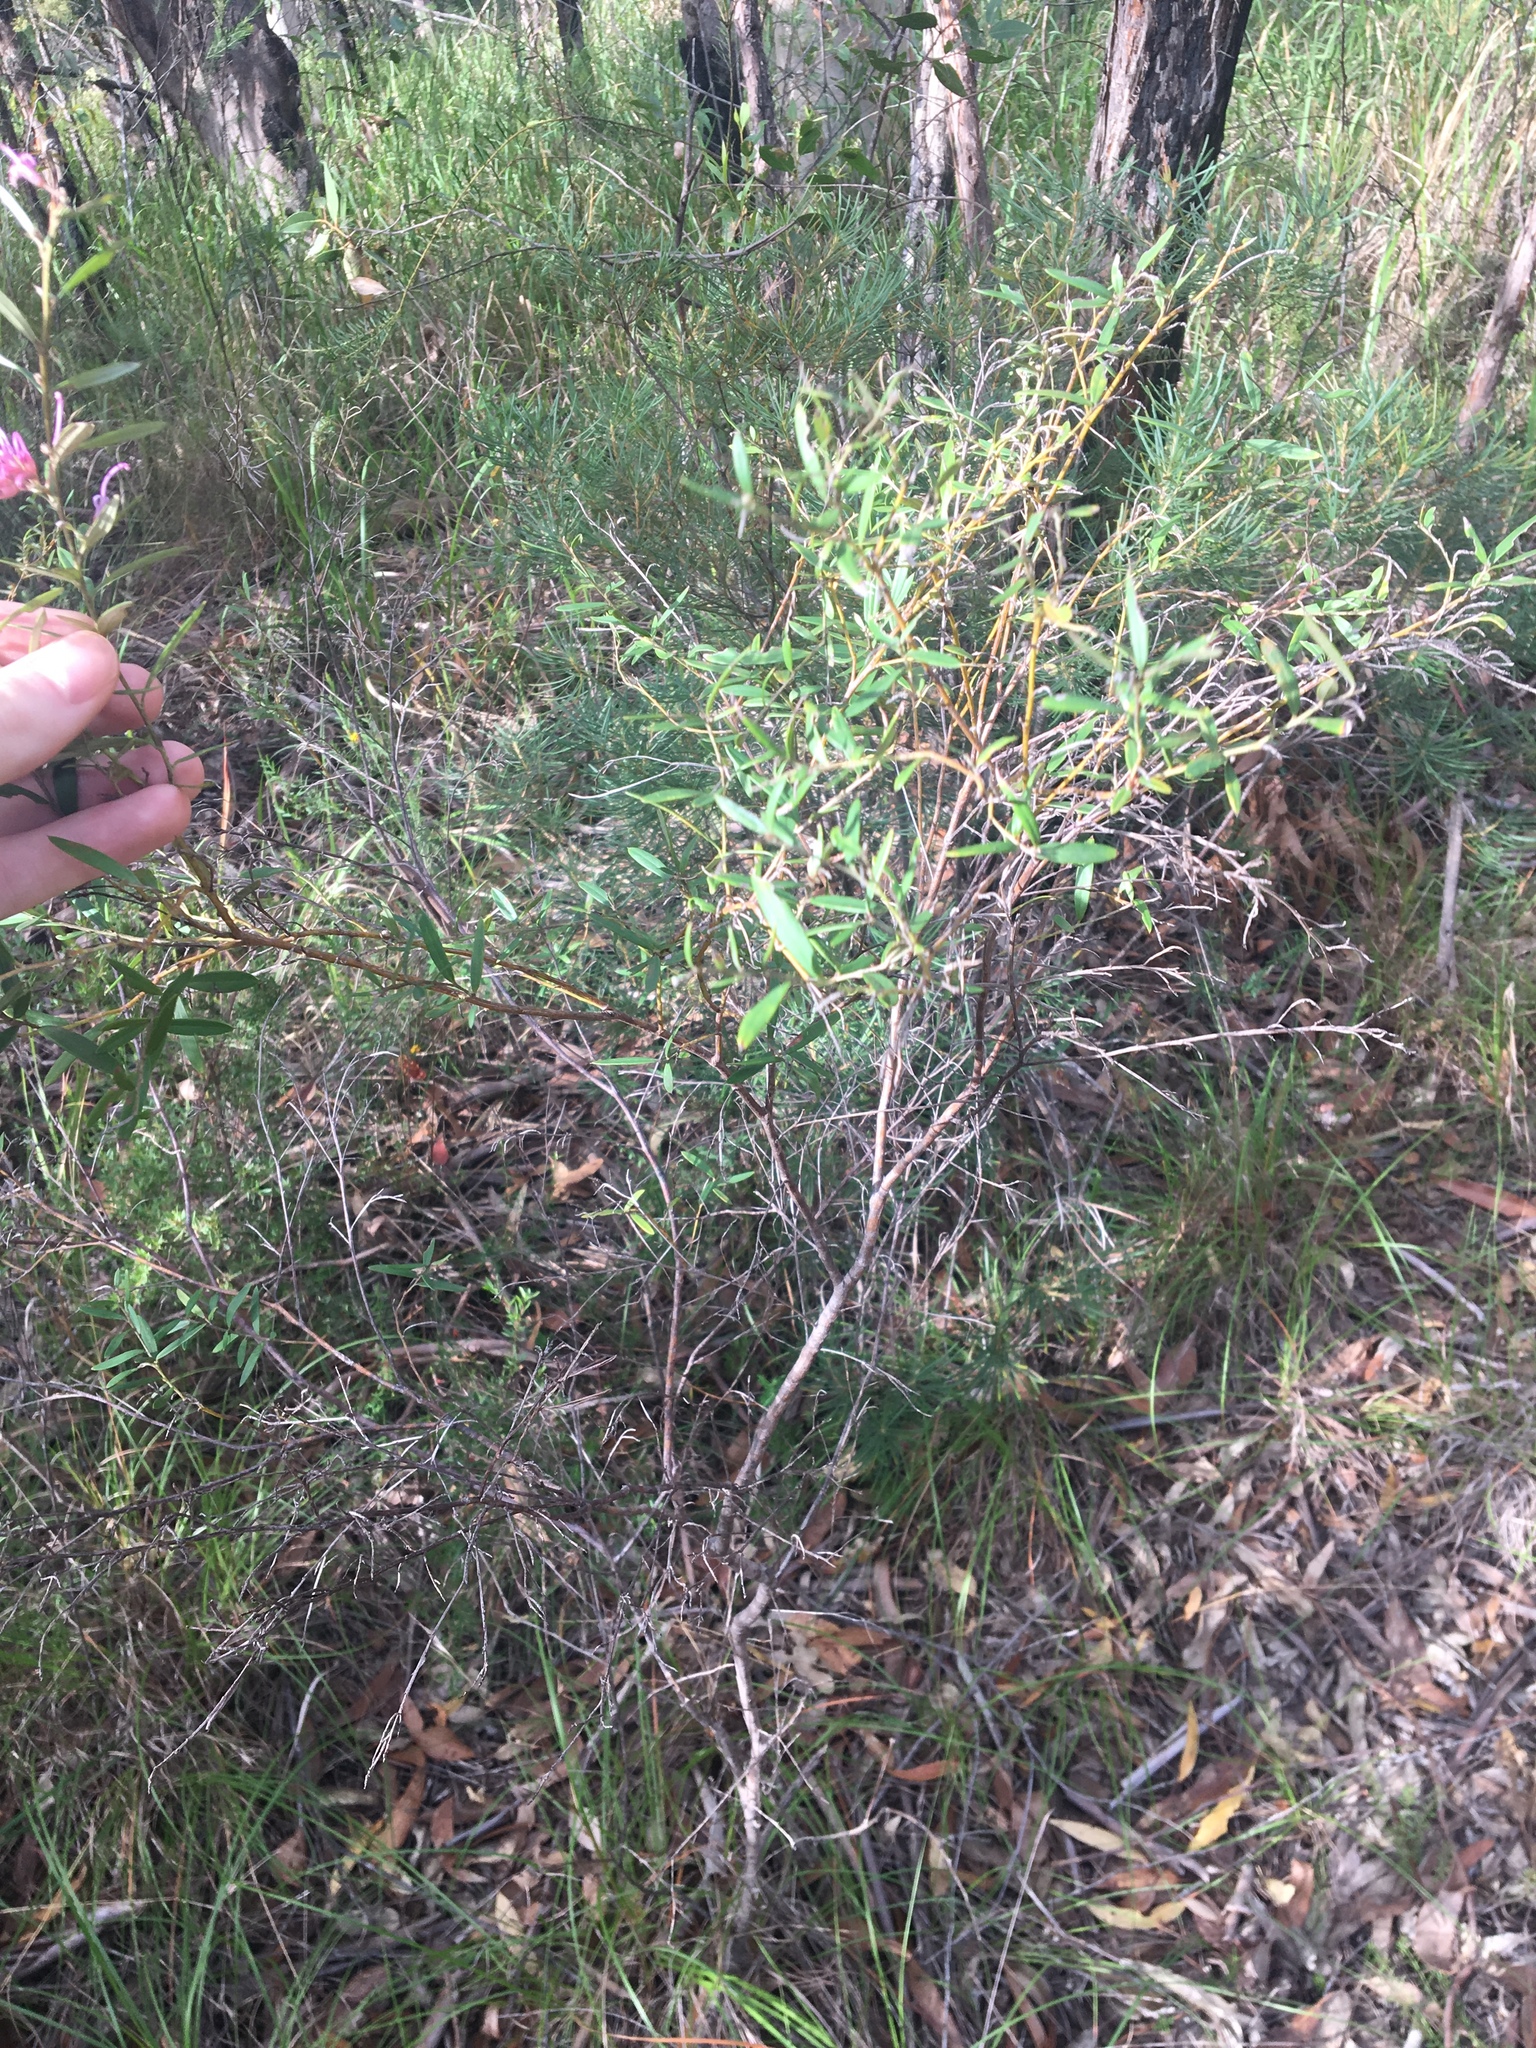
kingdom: Plantae
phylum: Tracheophyta
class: Magnoliopsida
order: Proteales
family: Proteaceae
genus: Grevillea
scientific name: Grevillea sericea
